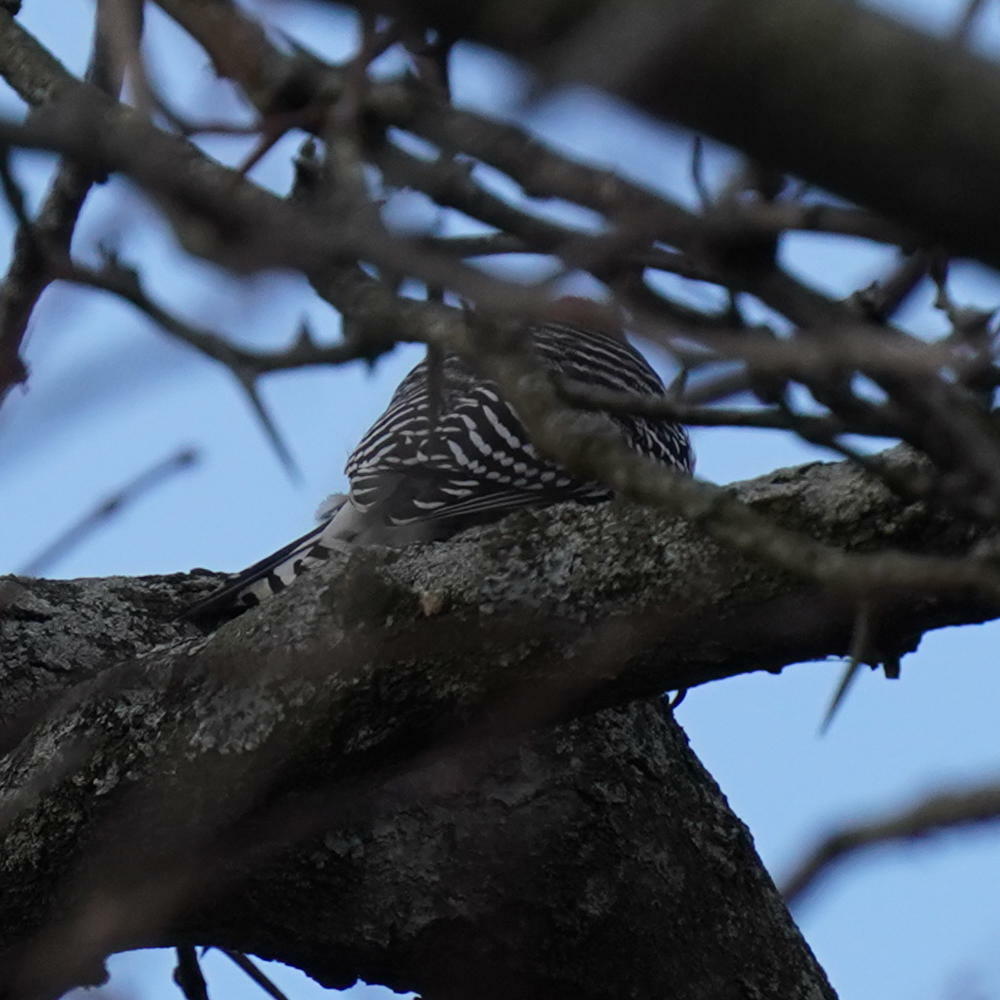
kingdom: Animalia
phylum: Chordata
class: Aves
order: Piciformes
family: Picidae
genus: Melanerpes
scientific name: Melanerpes carolinus
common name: Red-bellied woodpecker
